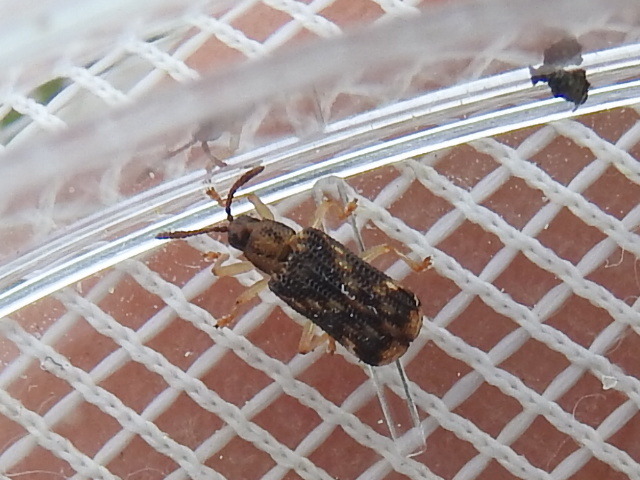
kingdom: Animalia
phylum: Arthropoda
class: Insecta
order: Coleoptera
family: Chrysomelidae
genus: Sumitrosis
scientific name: Sumitrosis inaequalis
